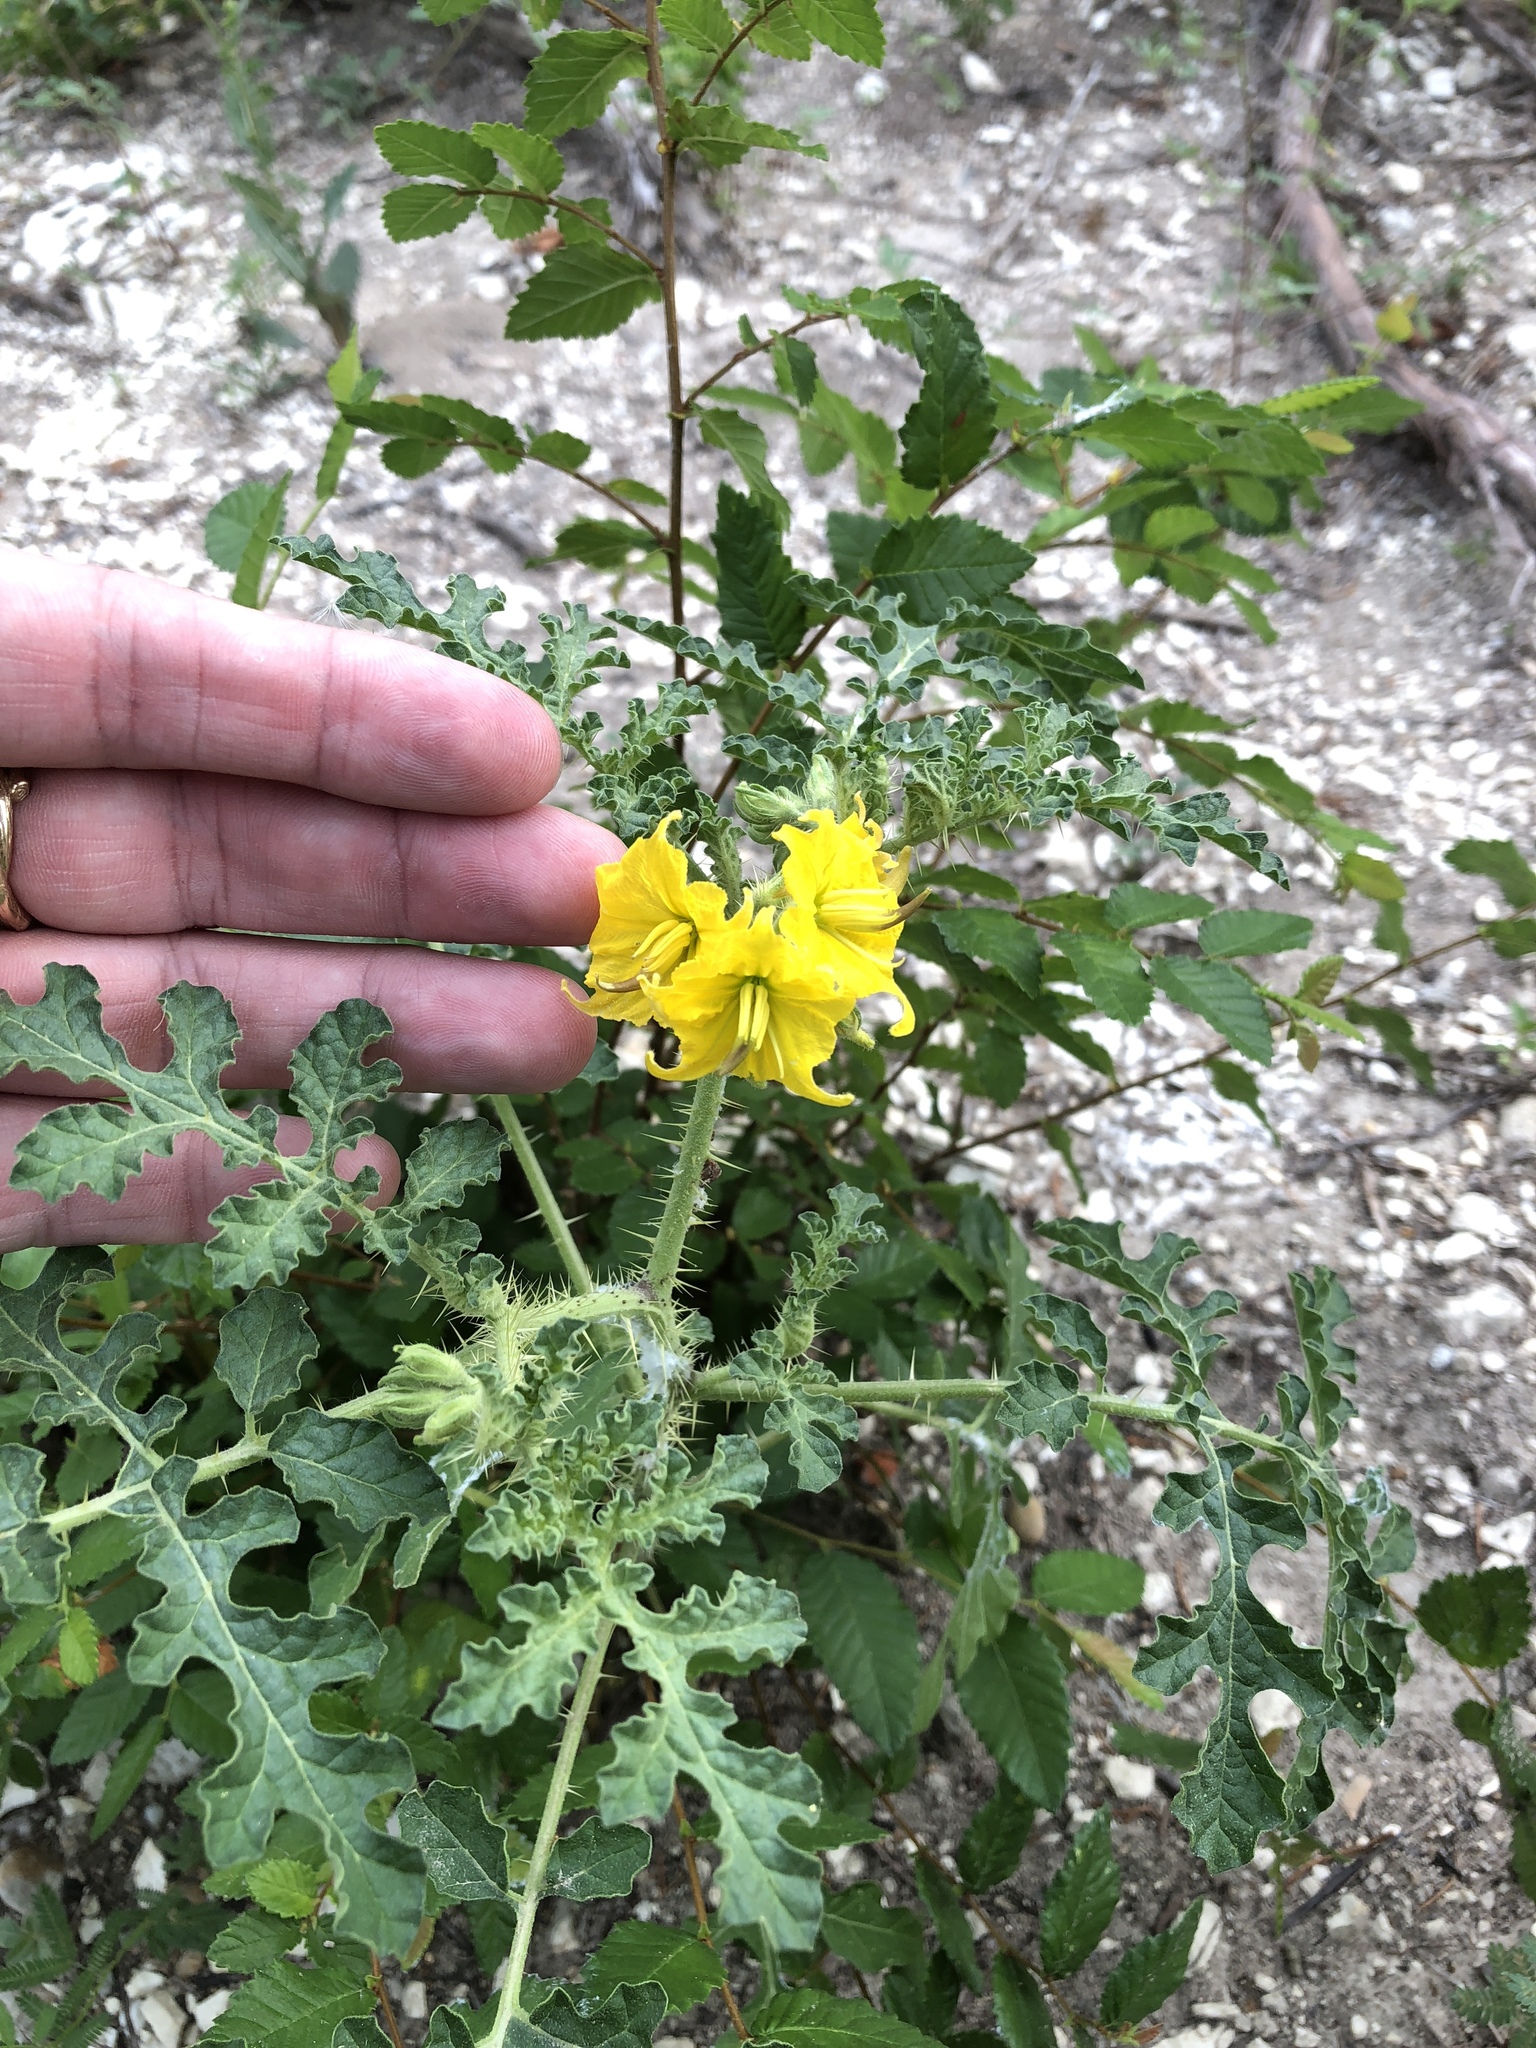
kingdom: Plantae
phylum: Tracheophyta
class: Magnoliopsida
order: Solanales
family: Solanaceae
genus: Solanum
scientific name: Solanum angustifolium
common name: Buffalobur nightshade
